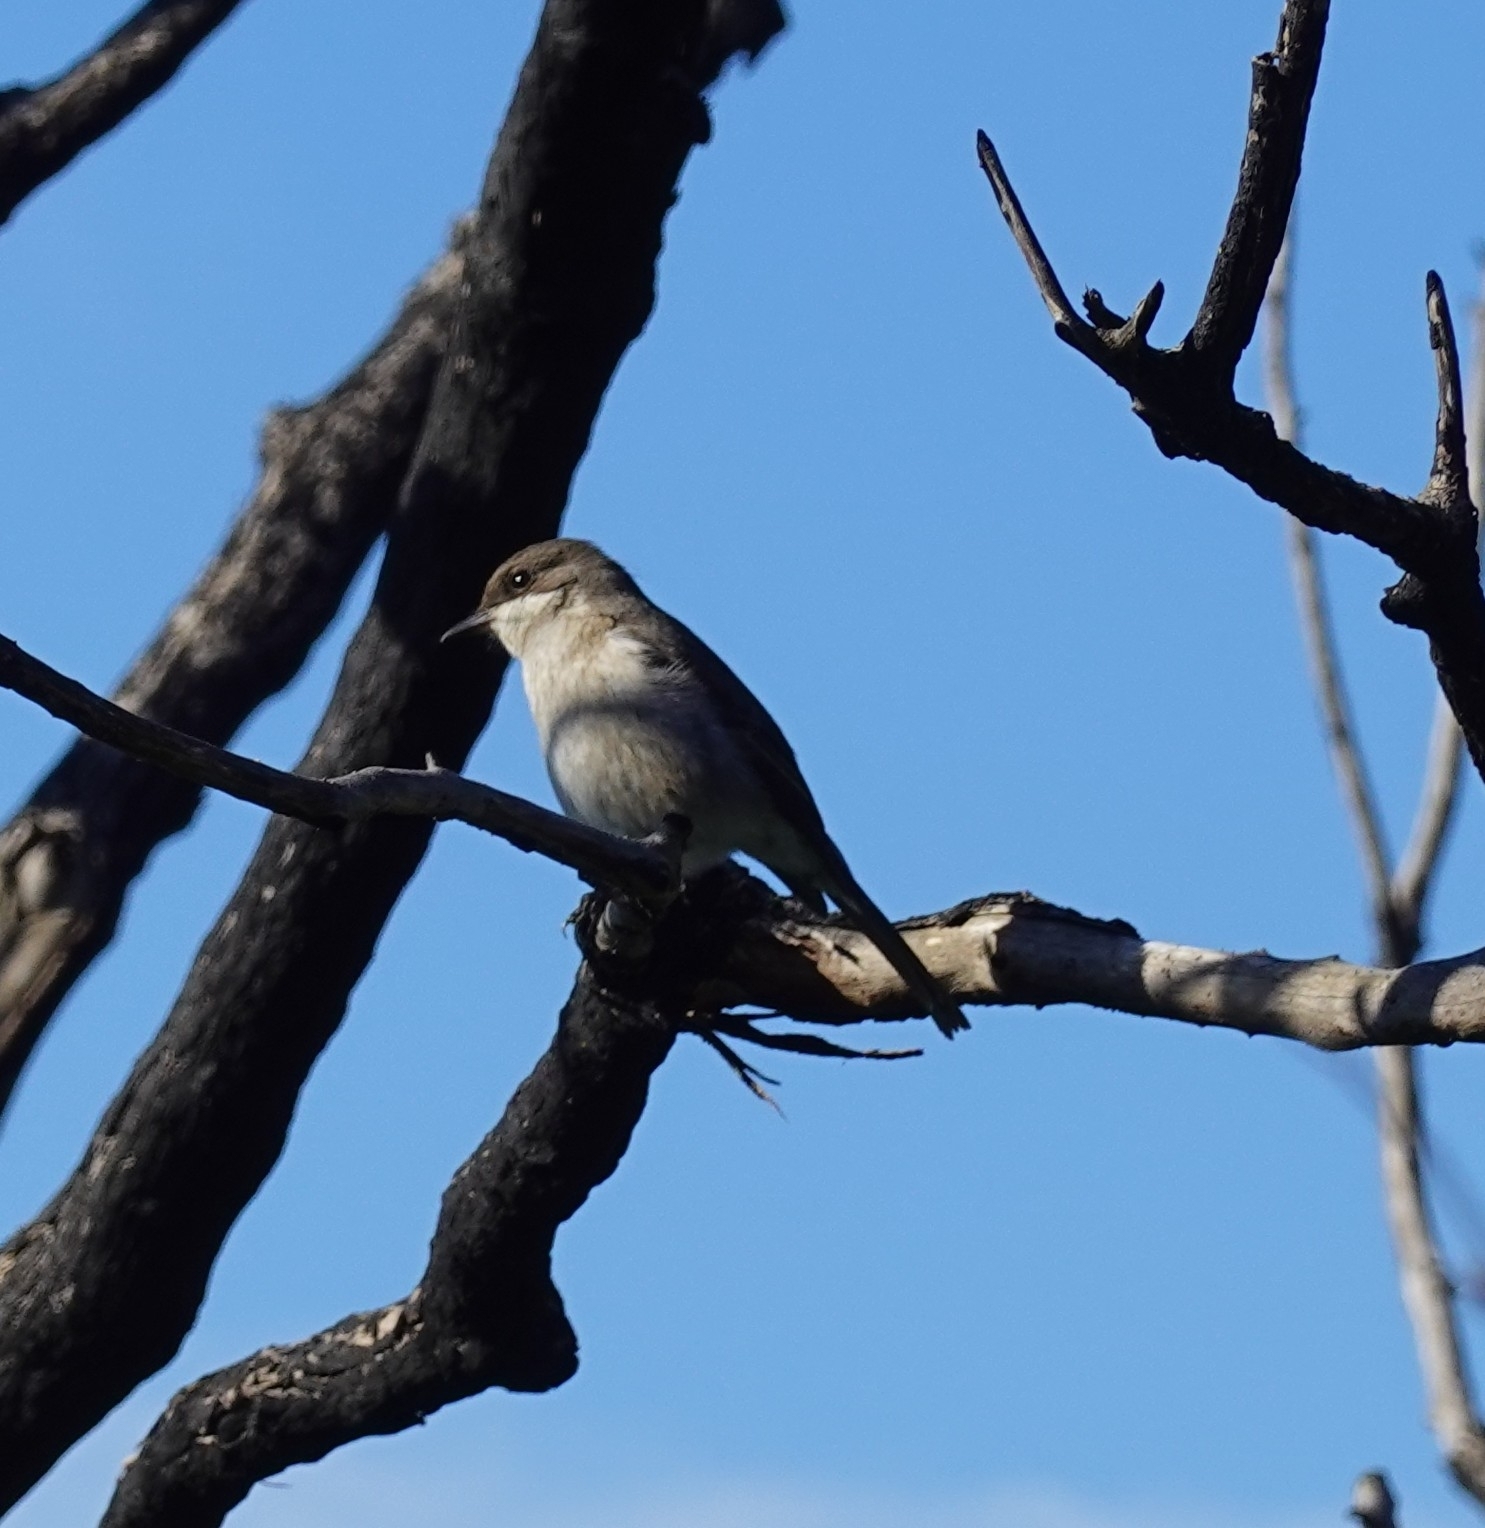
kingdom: Animalia
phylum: Chordata
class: Aves
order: Passeriformes
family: Muscicapidae
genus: Sigelus
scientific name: Sigelus silens
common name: Fiscal flycatcher
